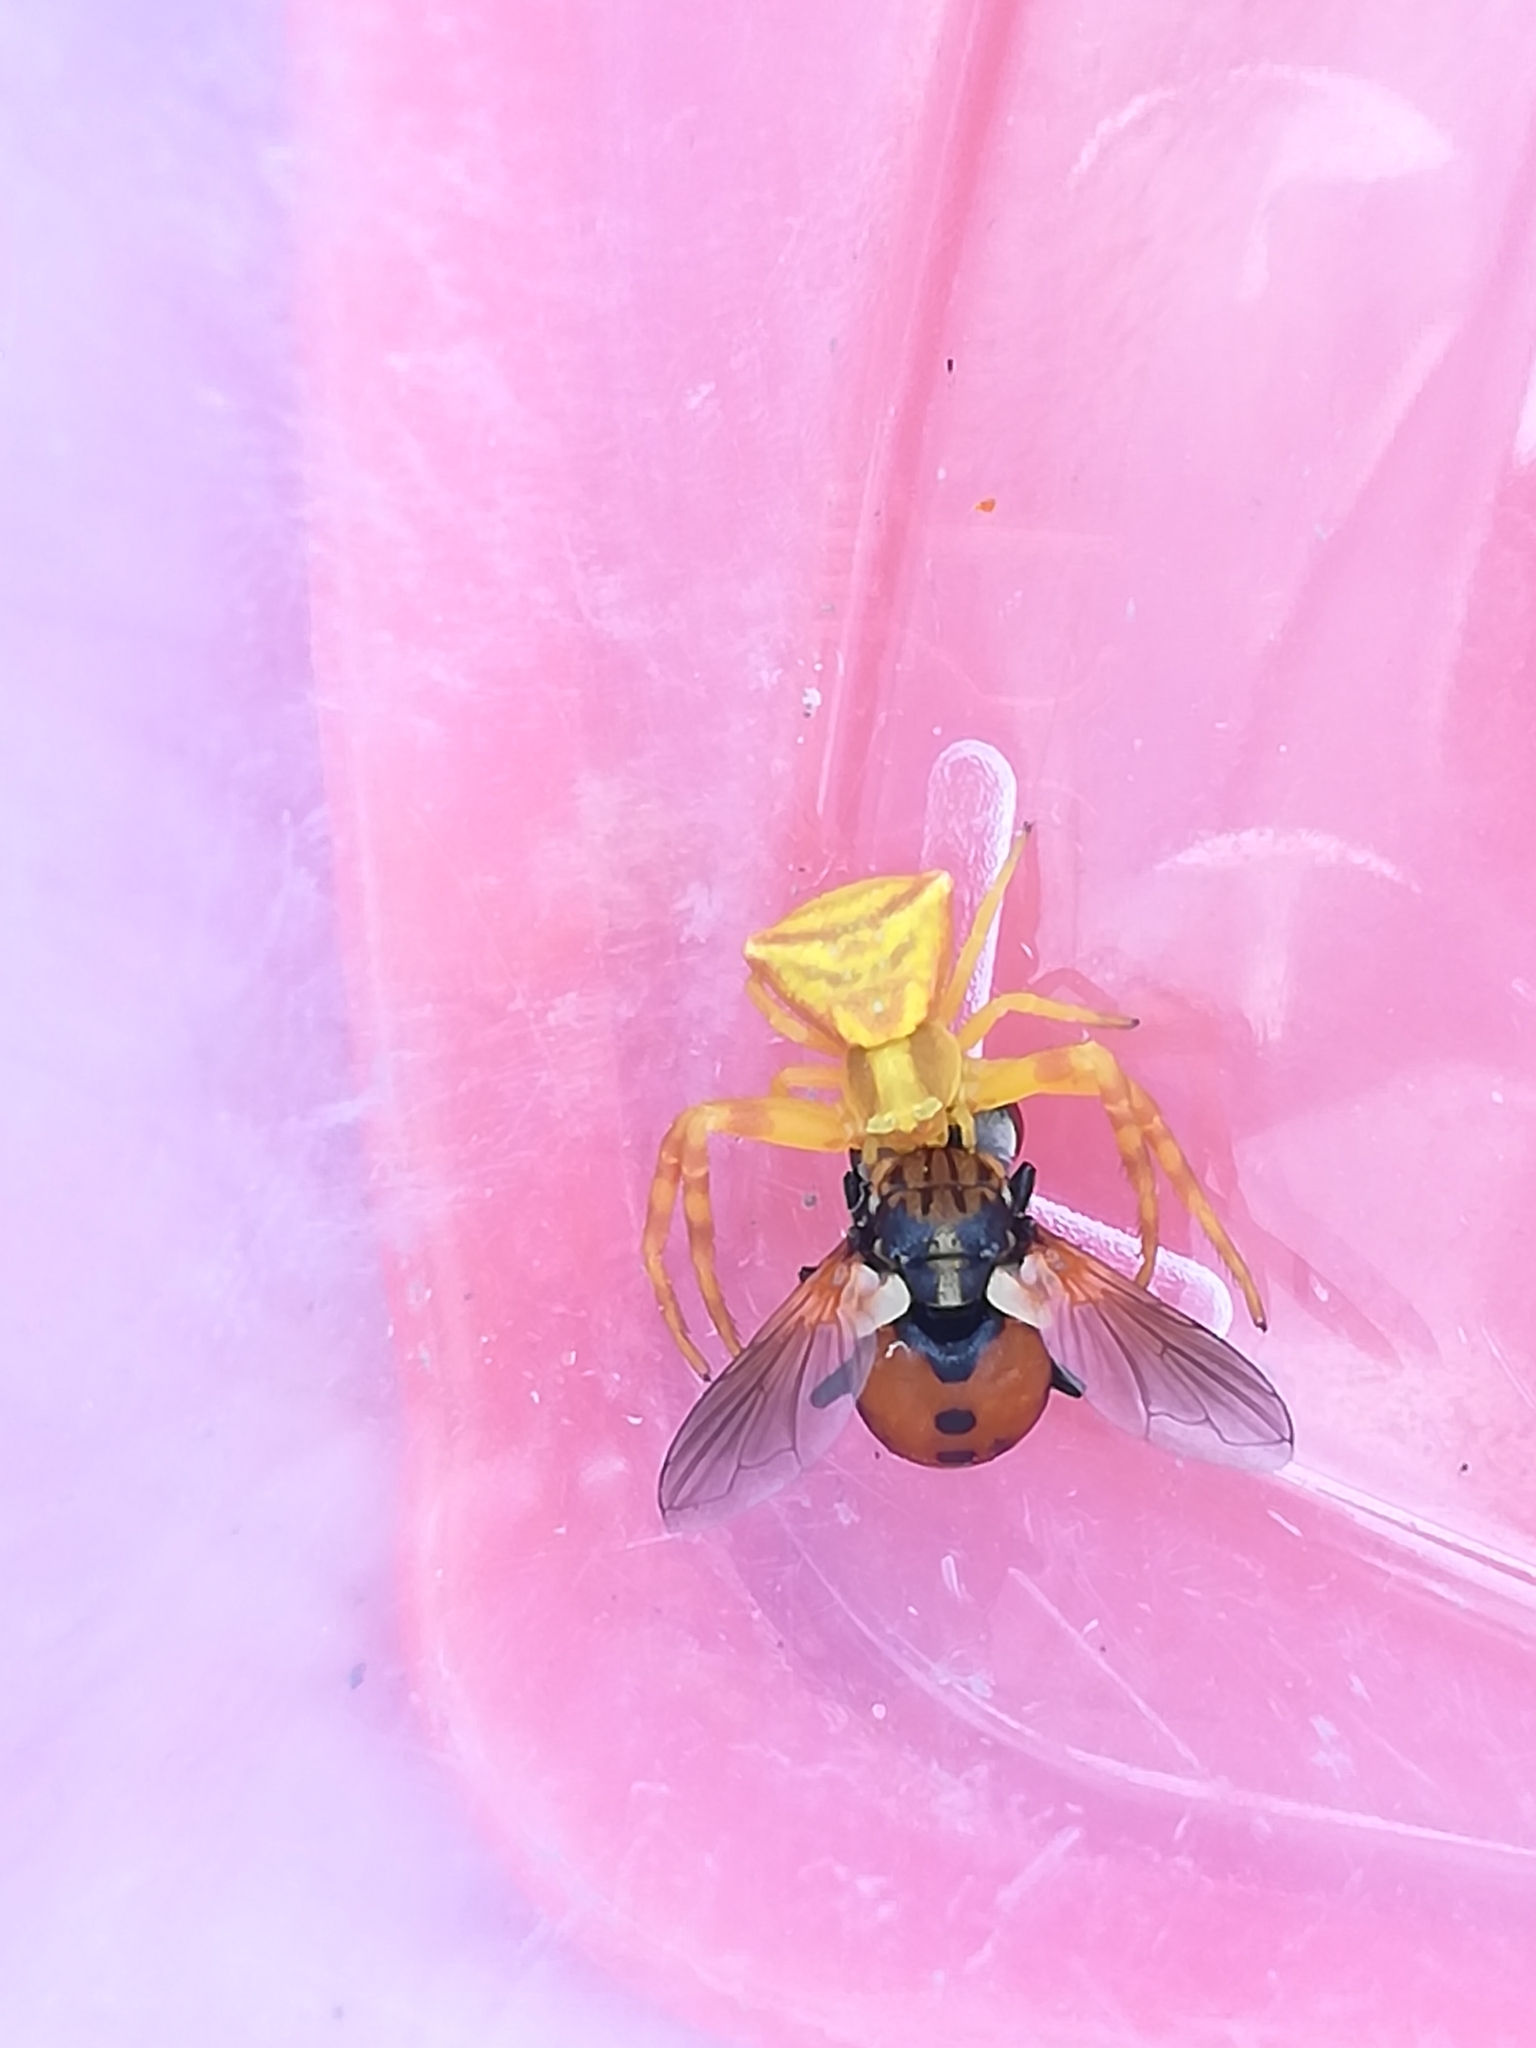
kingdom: Animalia
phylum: Arthropoda
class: Arachnida
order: Araneae
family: Thomisidae
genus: Thomisus
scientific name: Thomisus onustus
